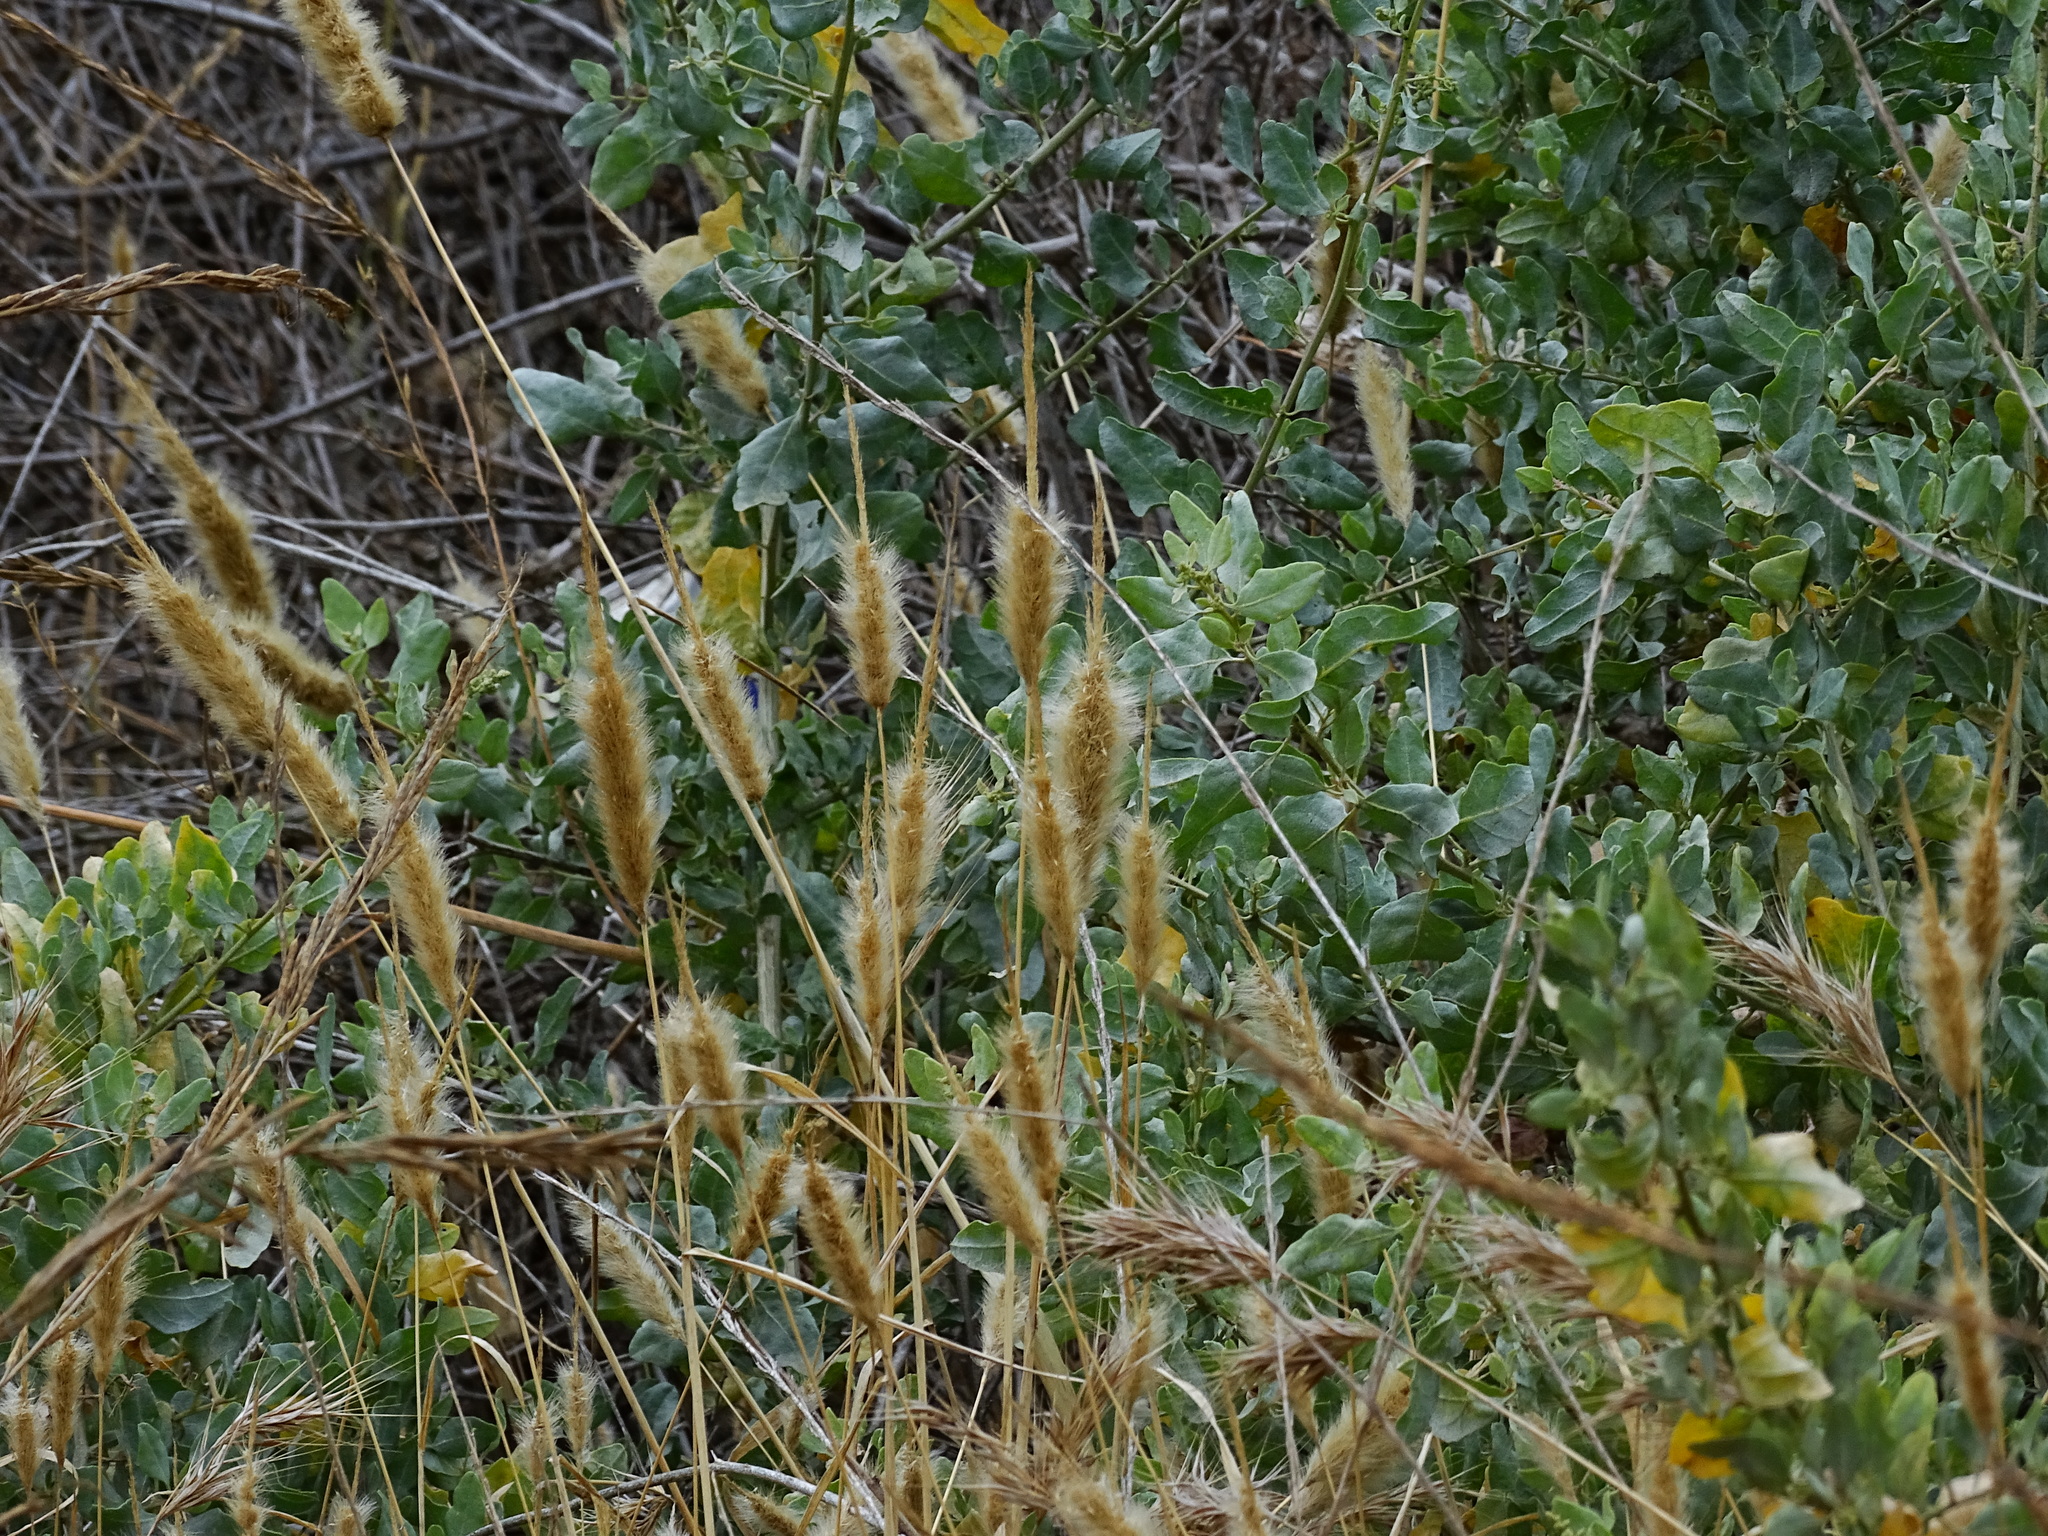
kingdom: Plantae
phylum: Tracheophyta
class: Liliopsida
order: Poales
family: Poaceae
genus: Polypogon
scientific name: Polypogon monspeliensis
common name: Annual rabbitsfoot grass
